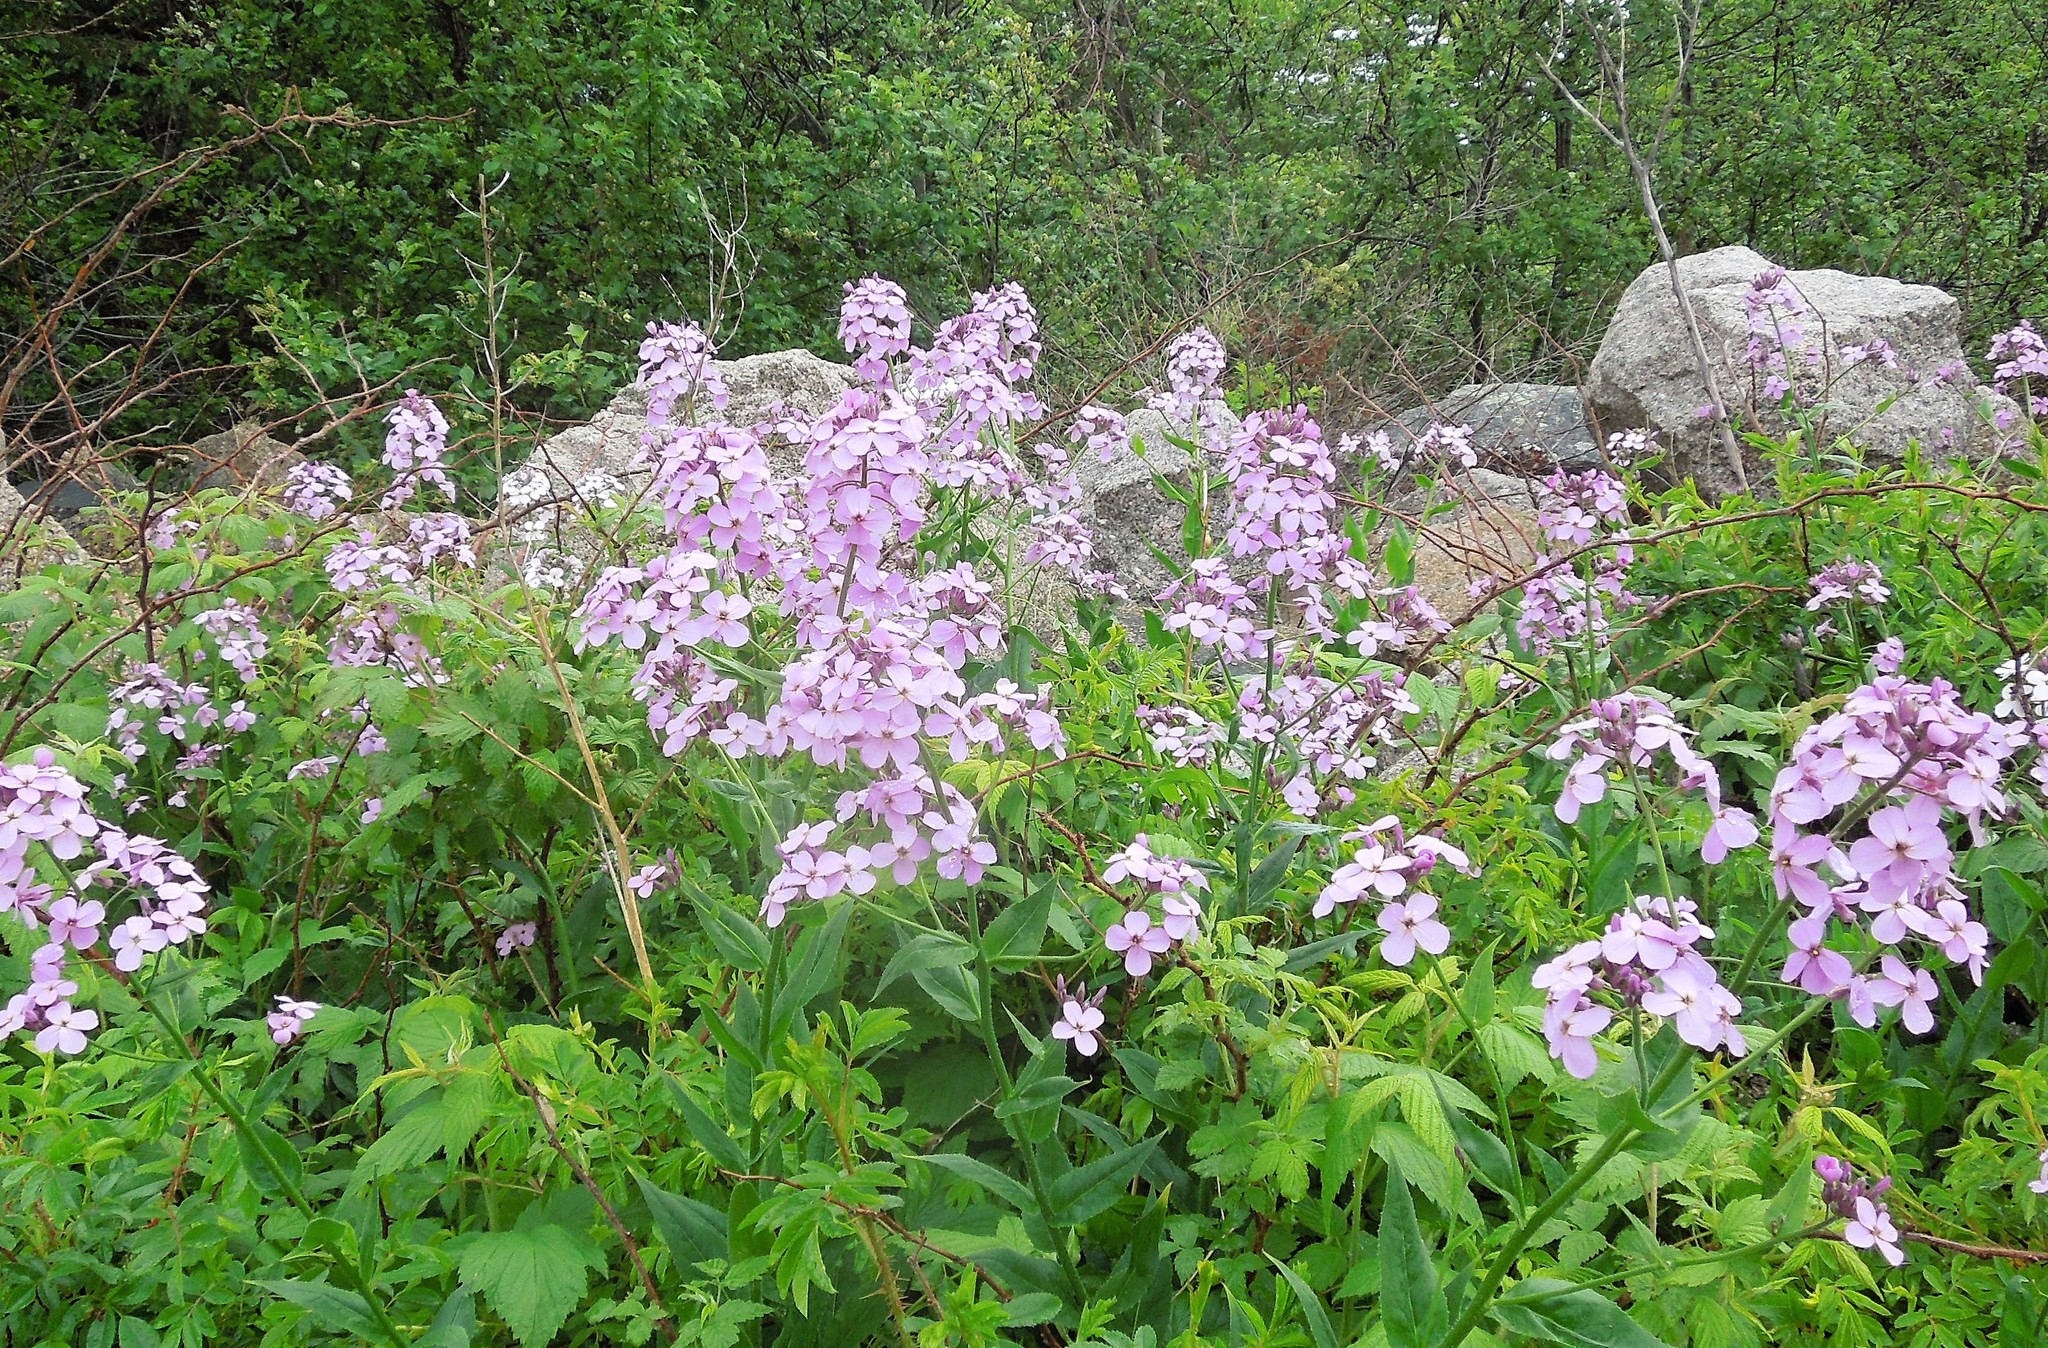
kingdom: Plantae
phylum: Tracheophyta
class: Magnoliopsida
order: Brassicales
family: Brassicaceae
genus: Hesperis
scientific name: Hesperis matronalis
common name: Dame's-violet
